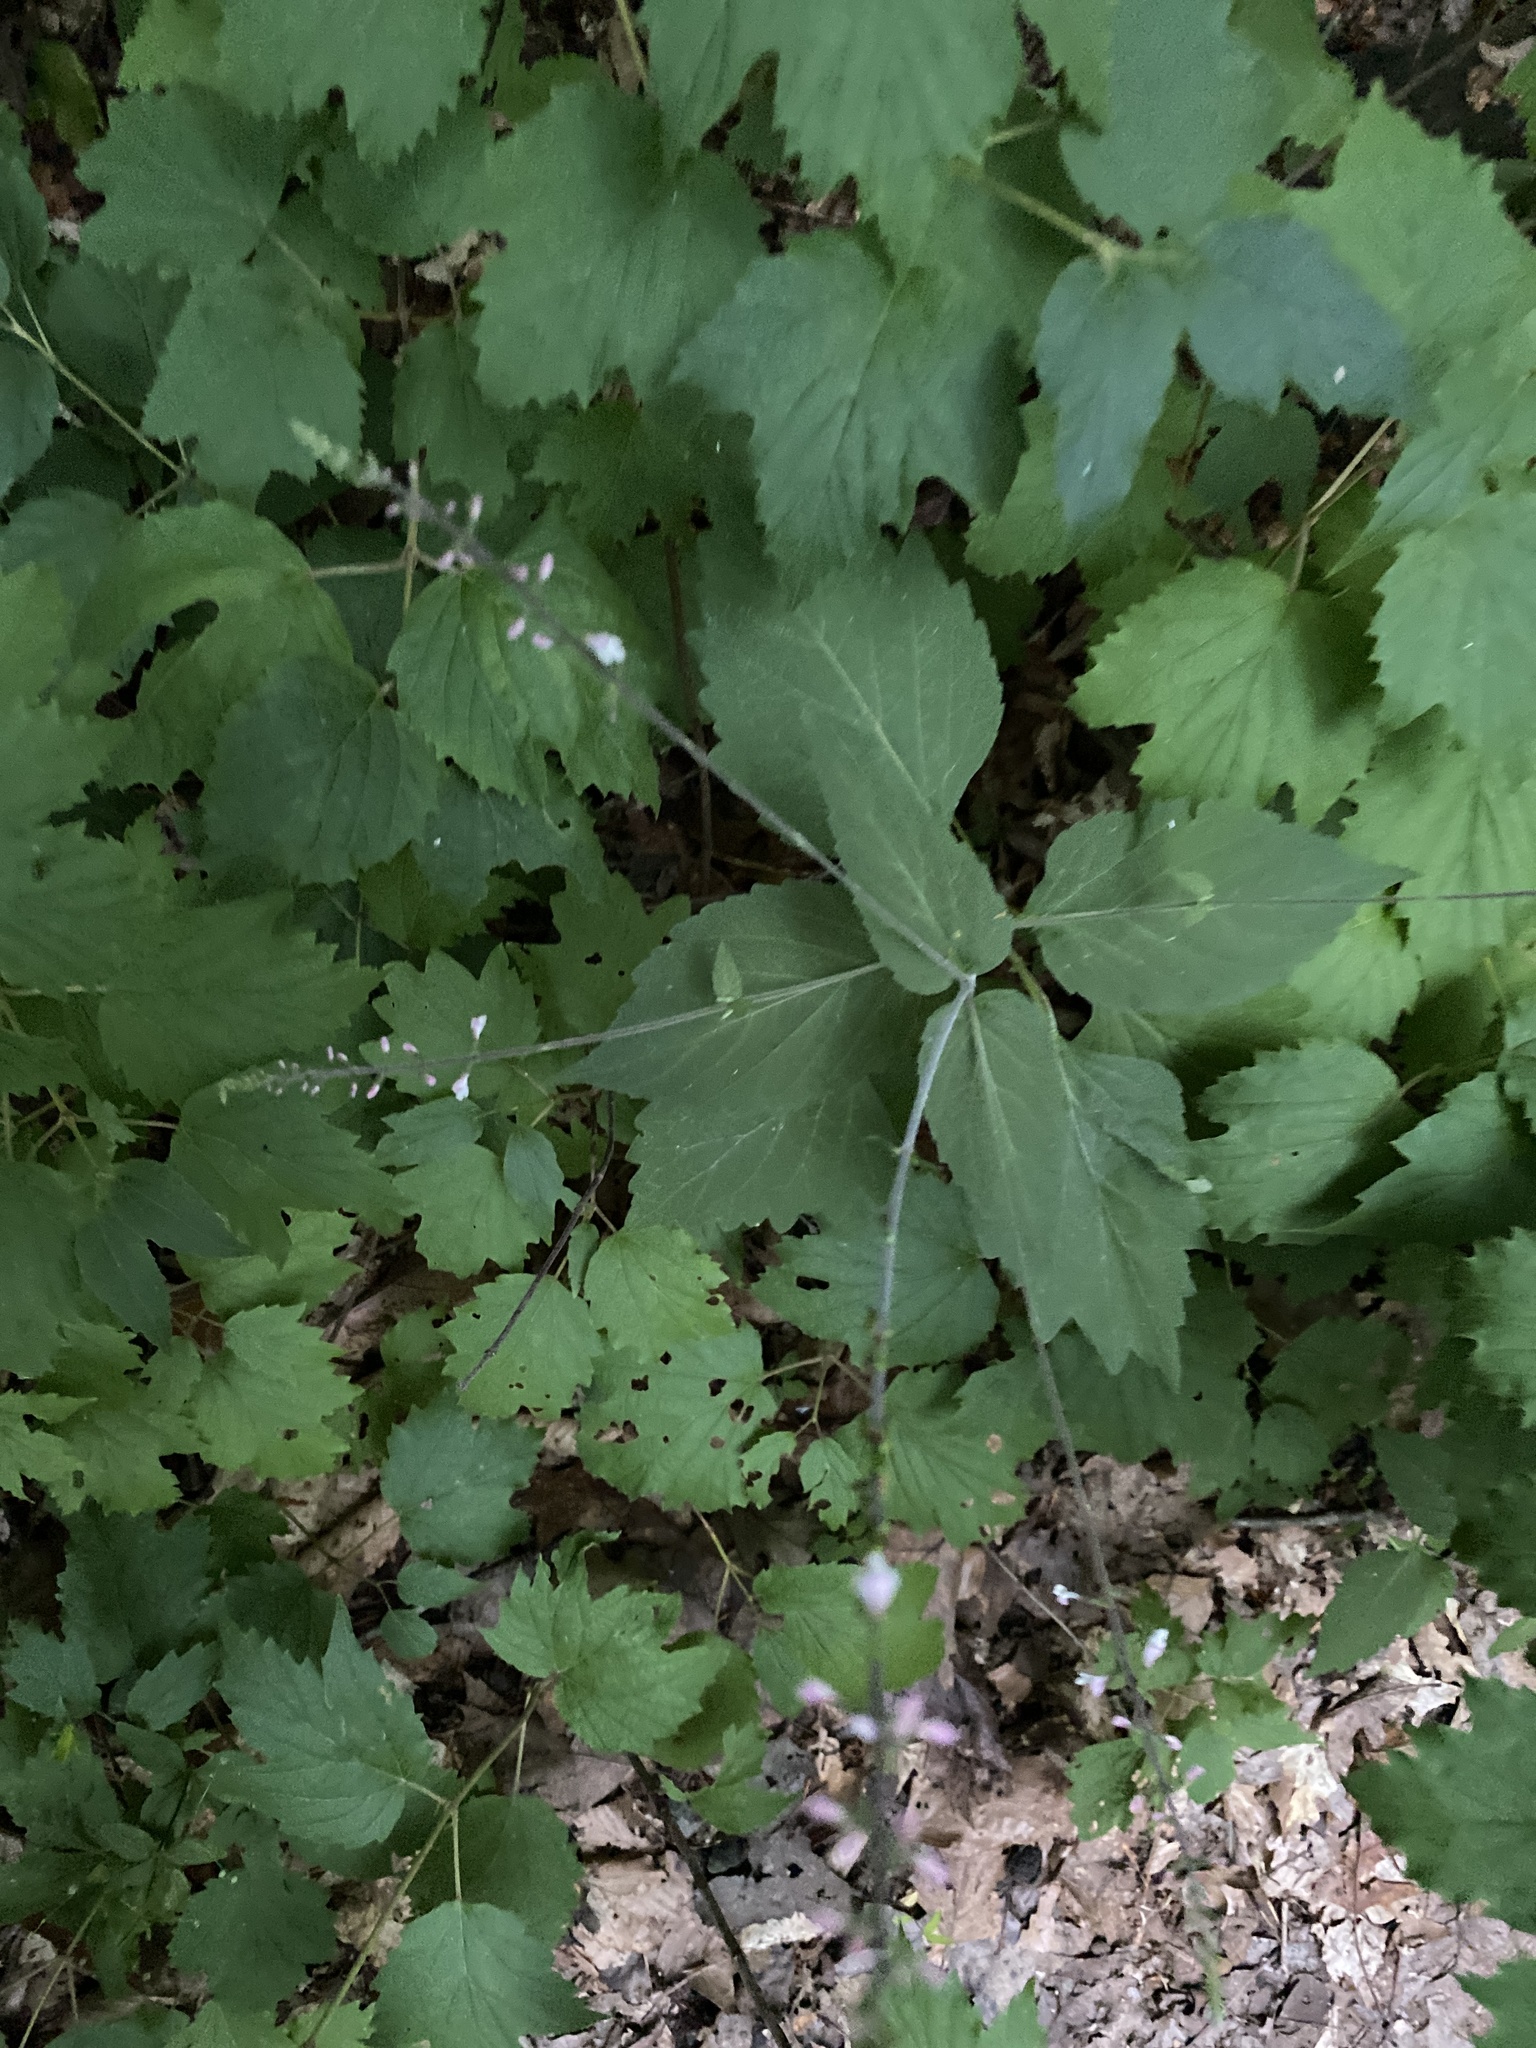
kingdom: Plantae
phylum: Tracheophyta
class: Magnoliopsida
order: Lamiales
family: Phrymaceae
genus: Phryma
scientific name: Phryma leptostachya
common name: American lopseed
